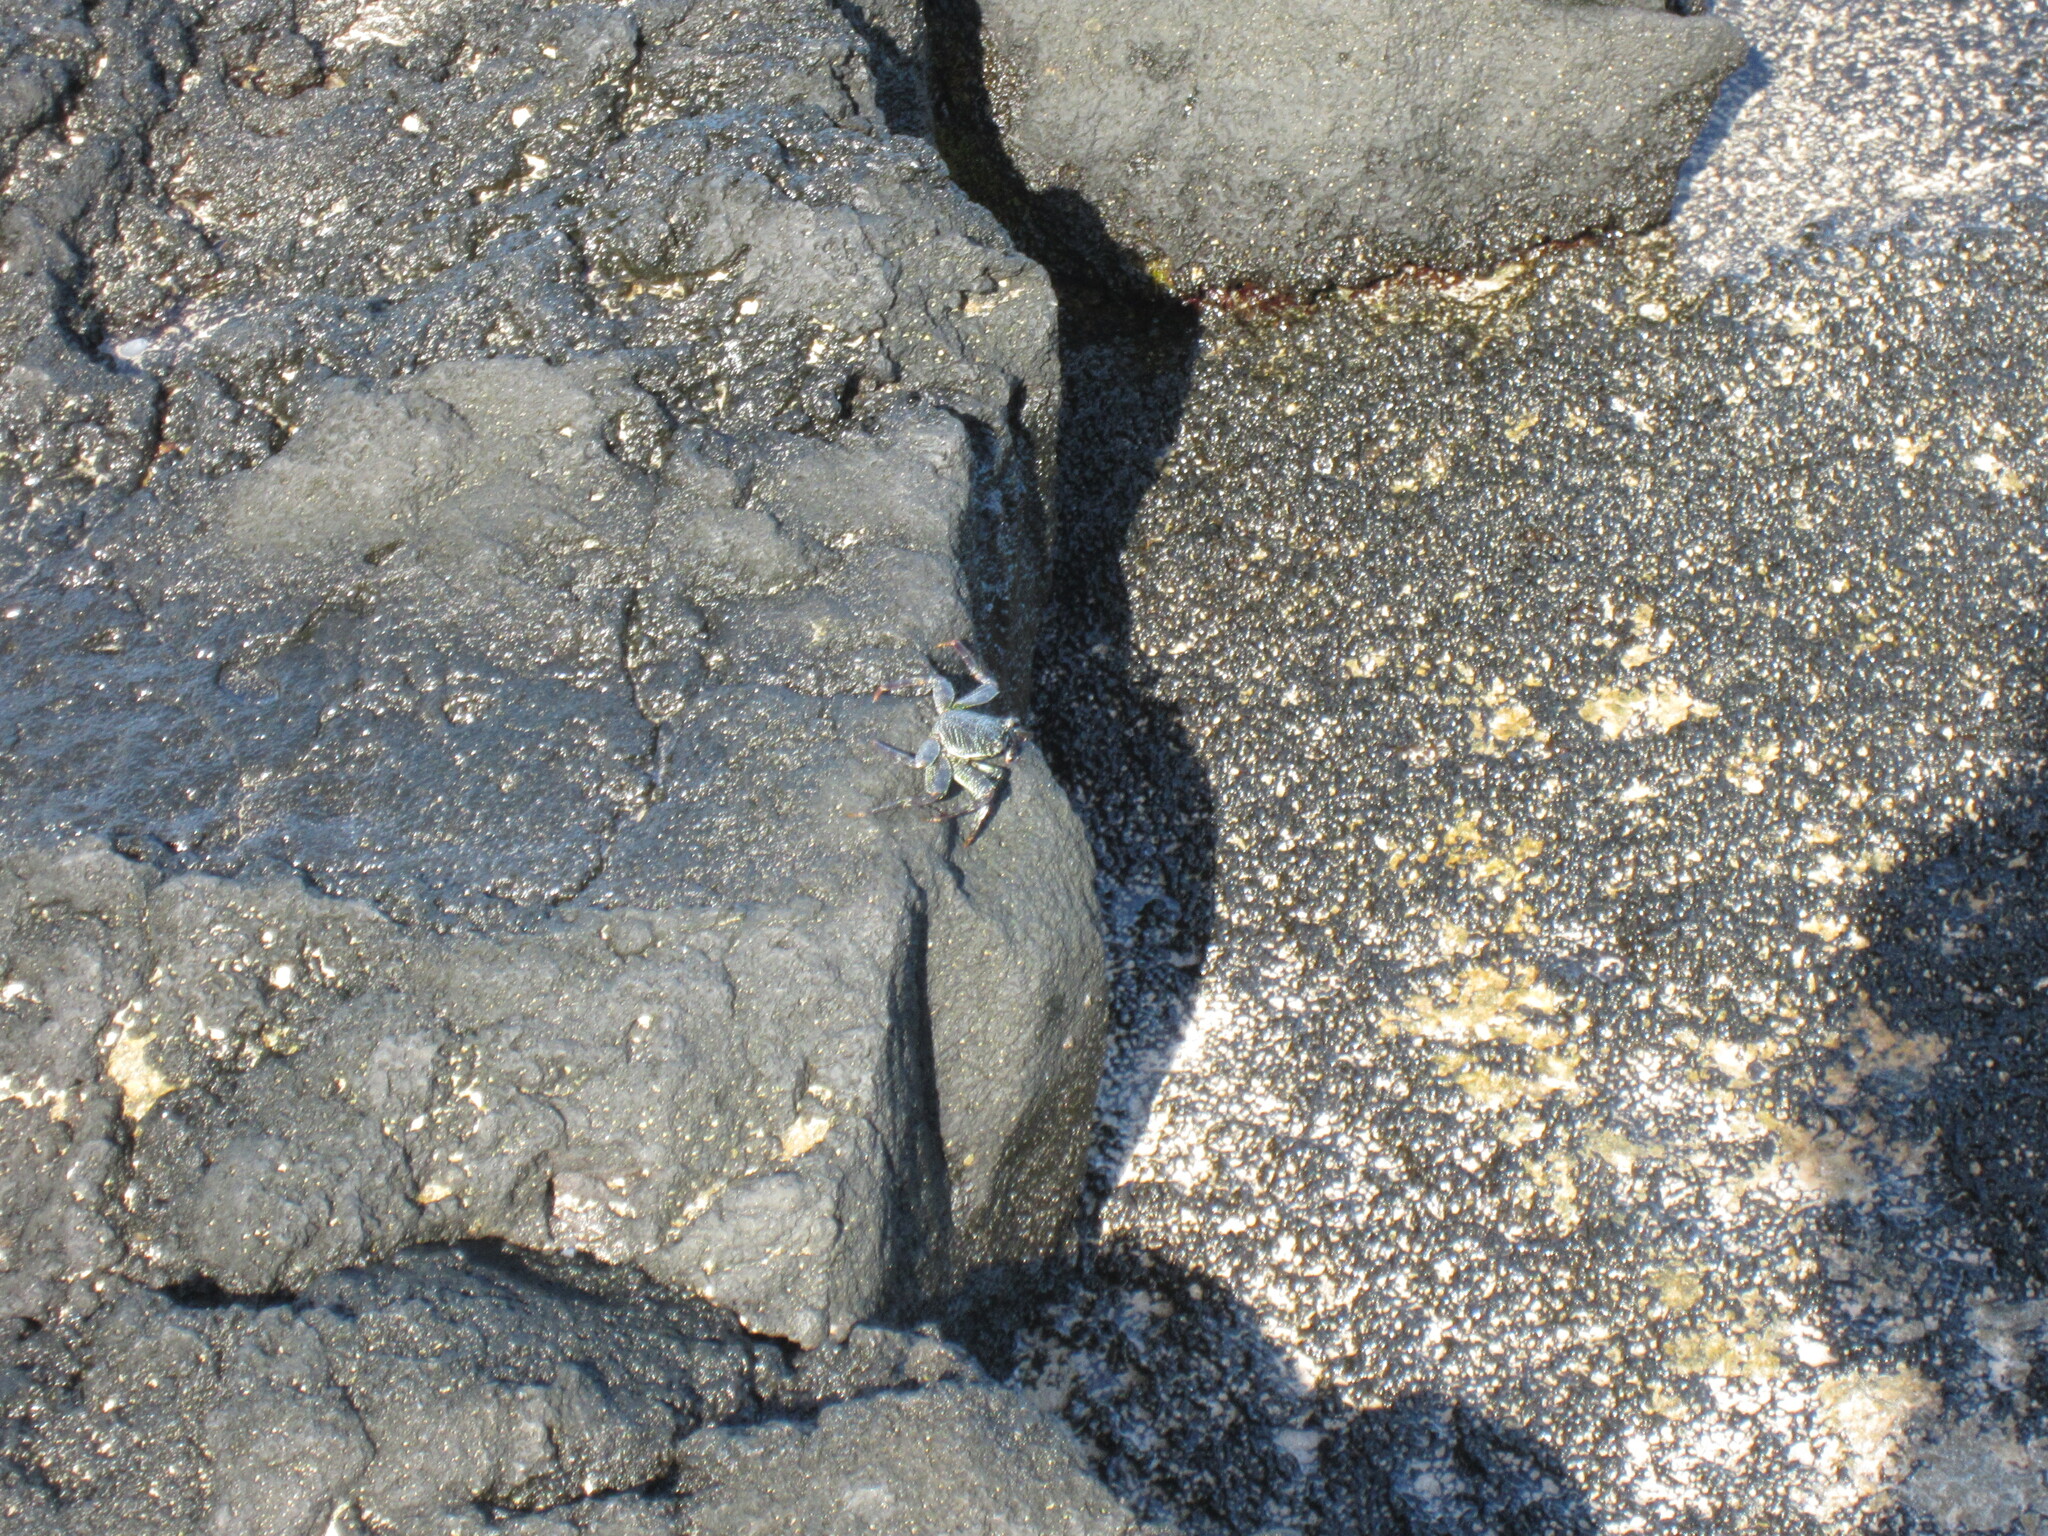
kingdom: Animalia
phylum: Arthropoda
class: Malacostraca
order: Decapoda
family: Grapsidae
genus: Grapsus
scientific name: Grapsus tenuicrustatus
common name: Natal lightfoot crab
